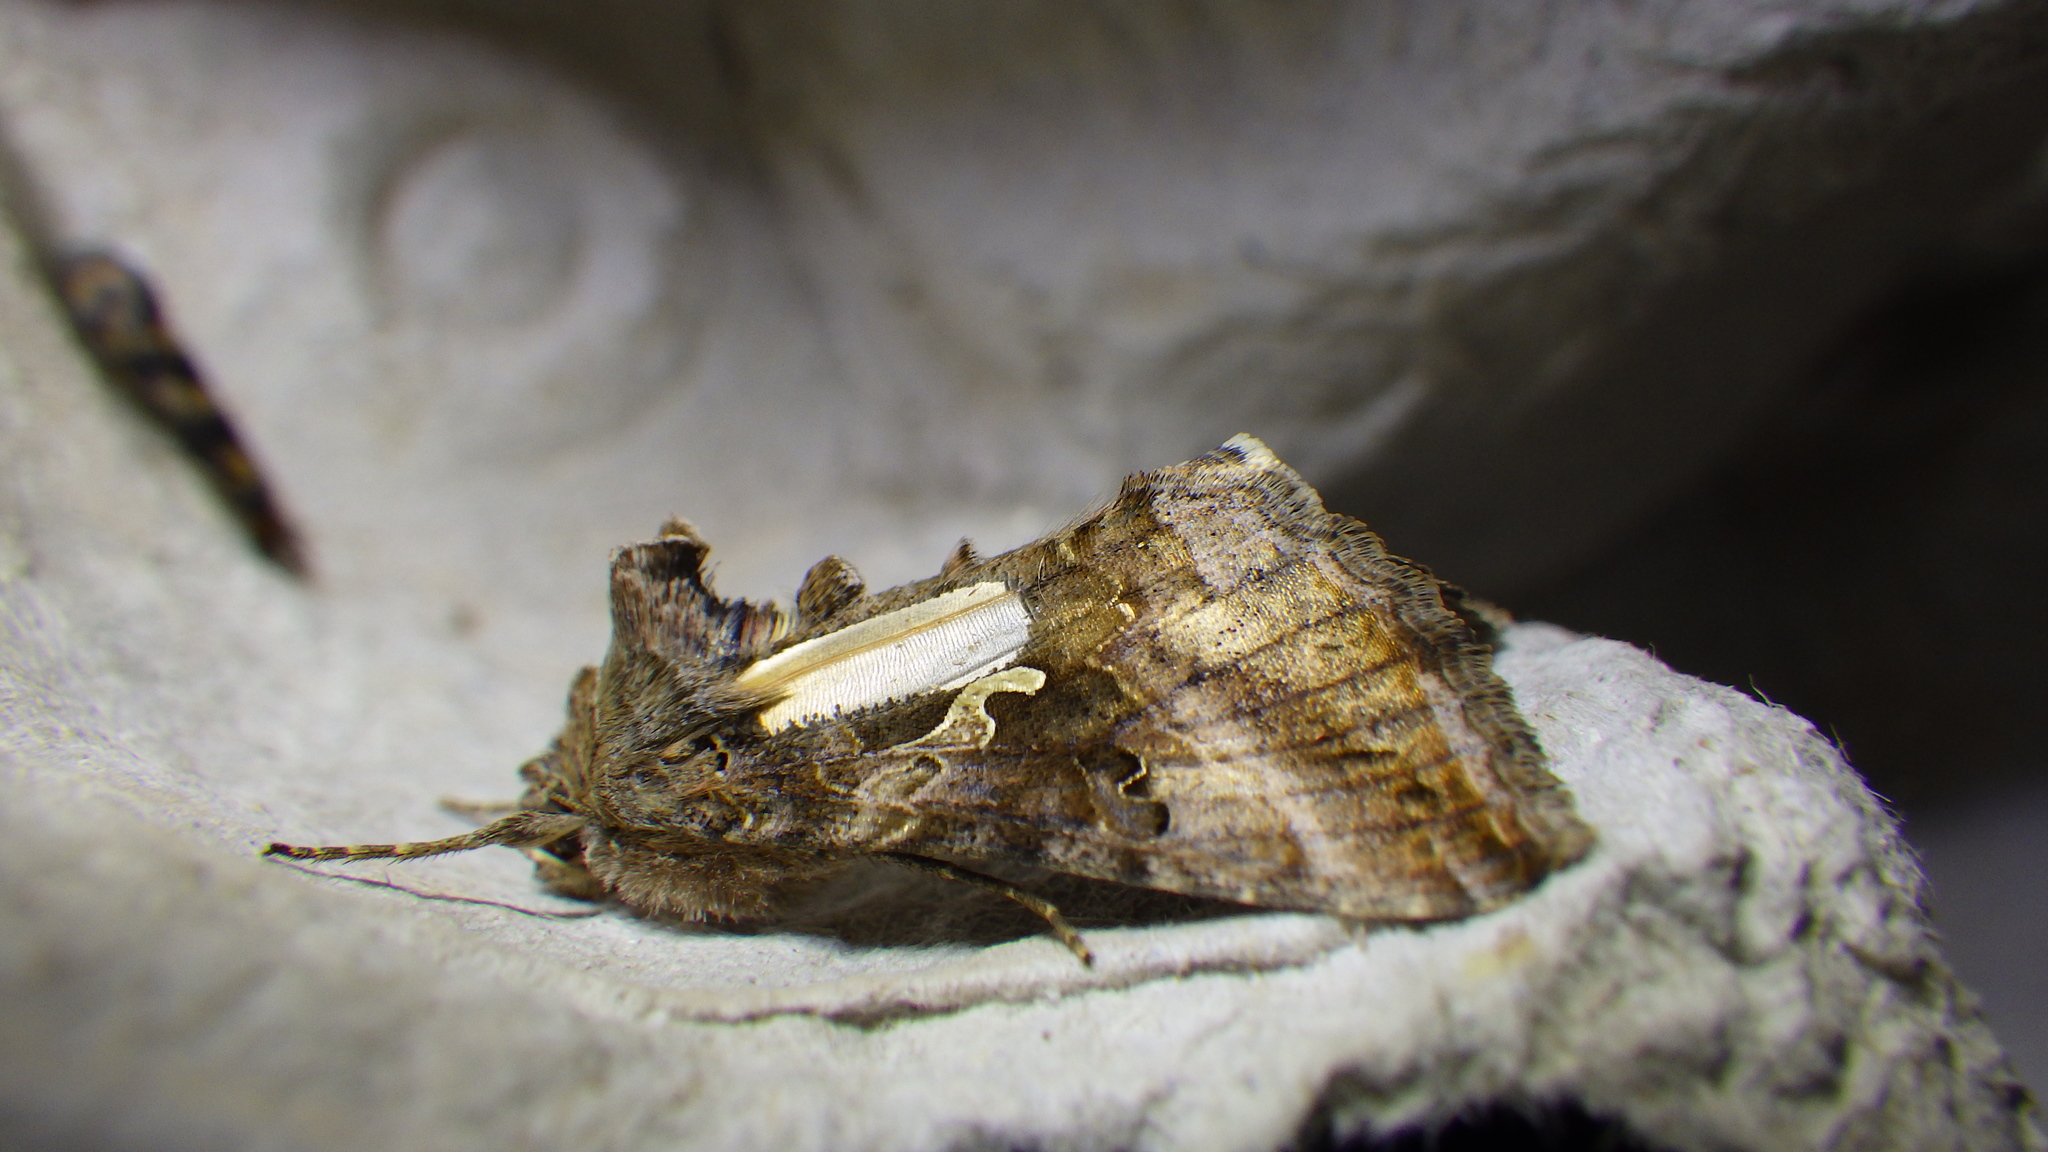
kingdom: Animalia
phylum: Arthropoda
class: Insecta
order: Lepidoptera
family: Noctuidae
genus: Autographa
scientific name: Autographa gamma
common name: Silver y
